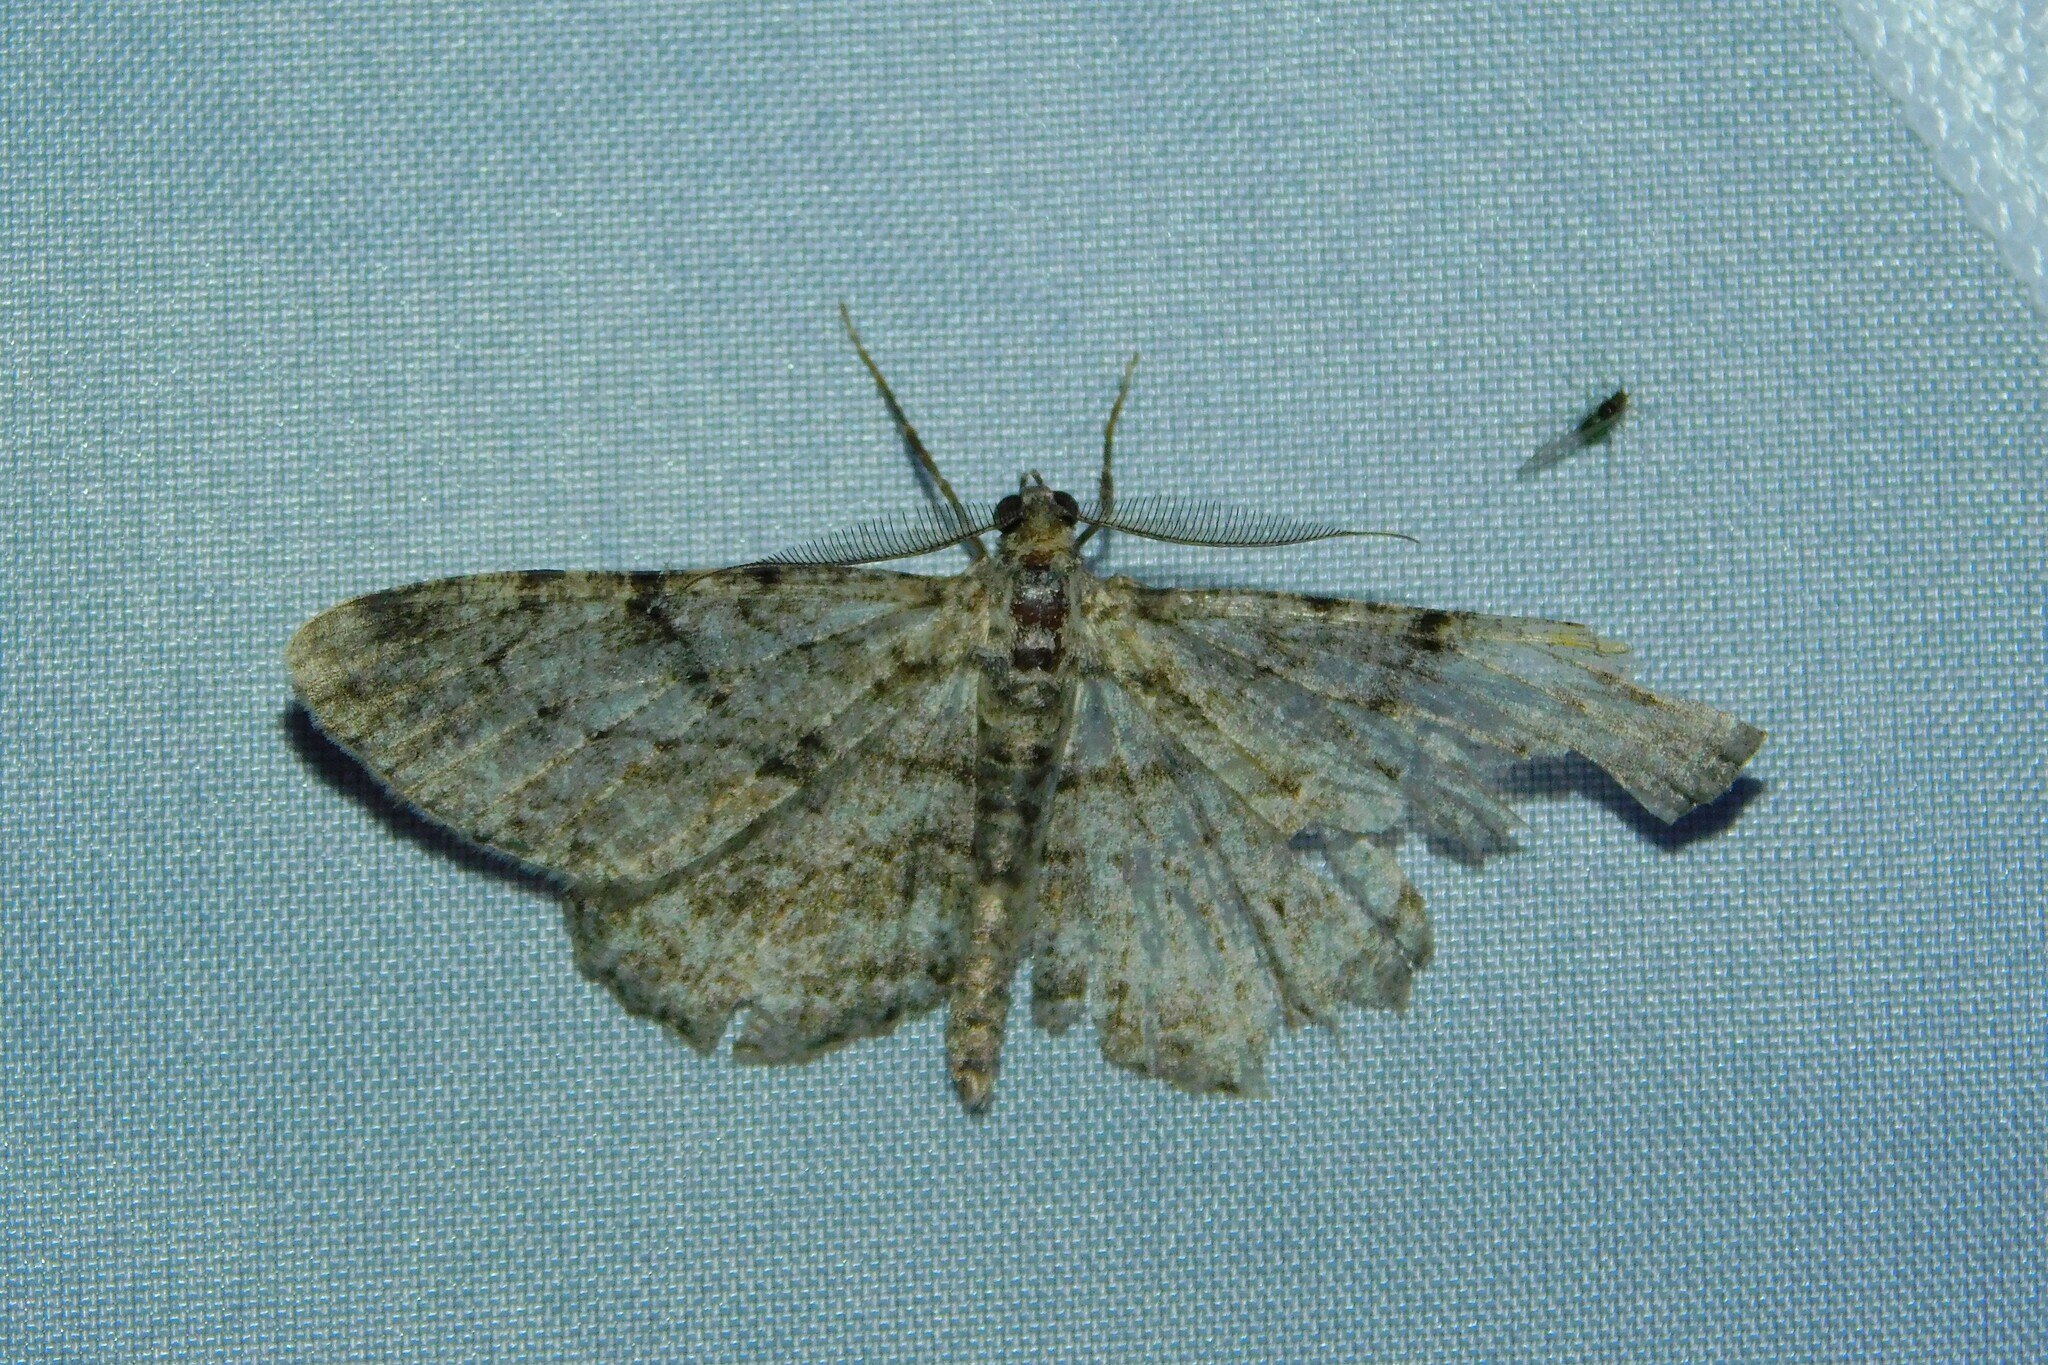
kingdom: Animalia
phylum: Arthropoda
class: Insecta
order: Lepidoptera
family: Geometridae
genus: Peribatodes
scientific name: Peribatodes rhomboidaria
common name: Willow beauty
